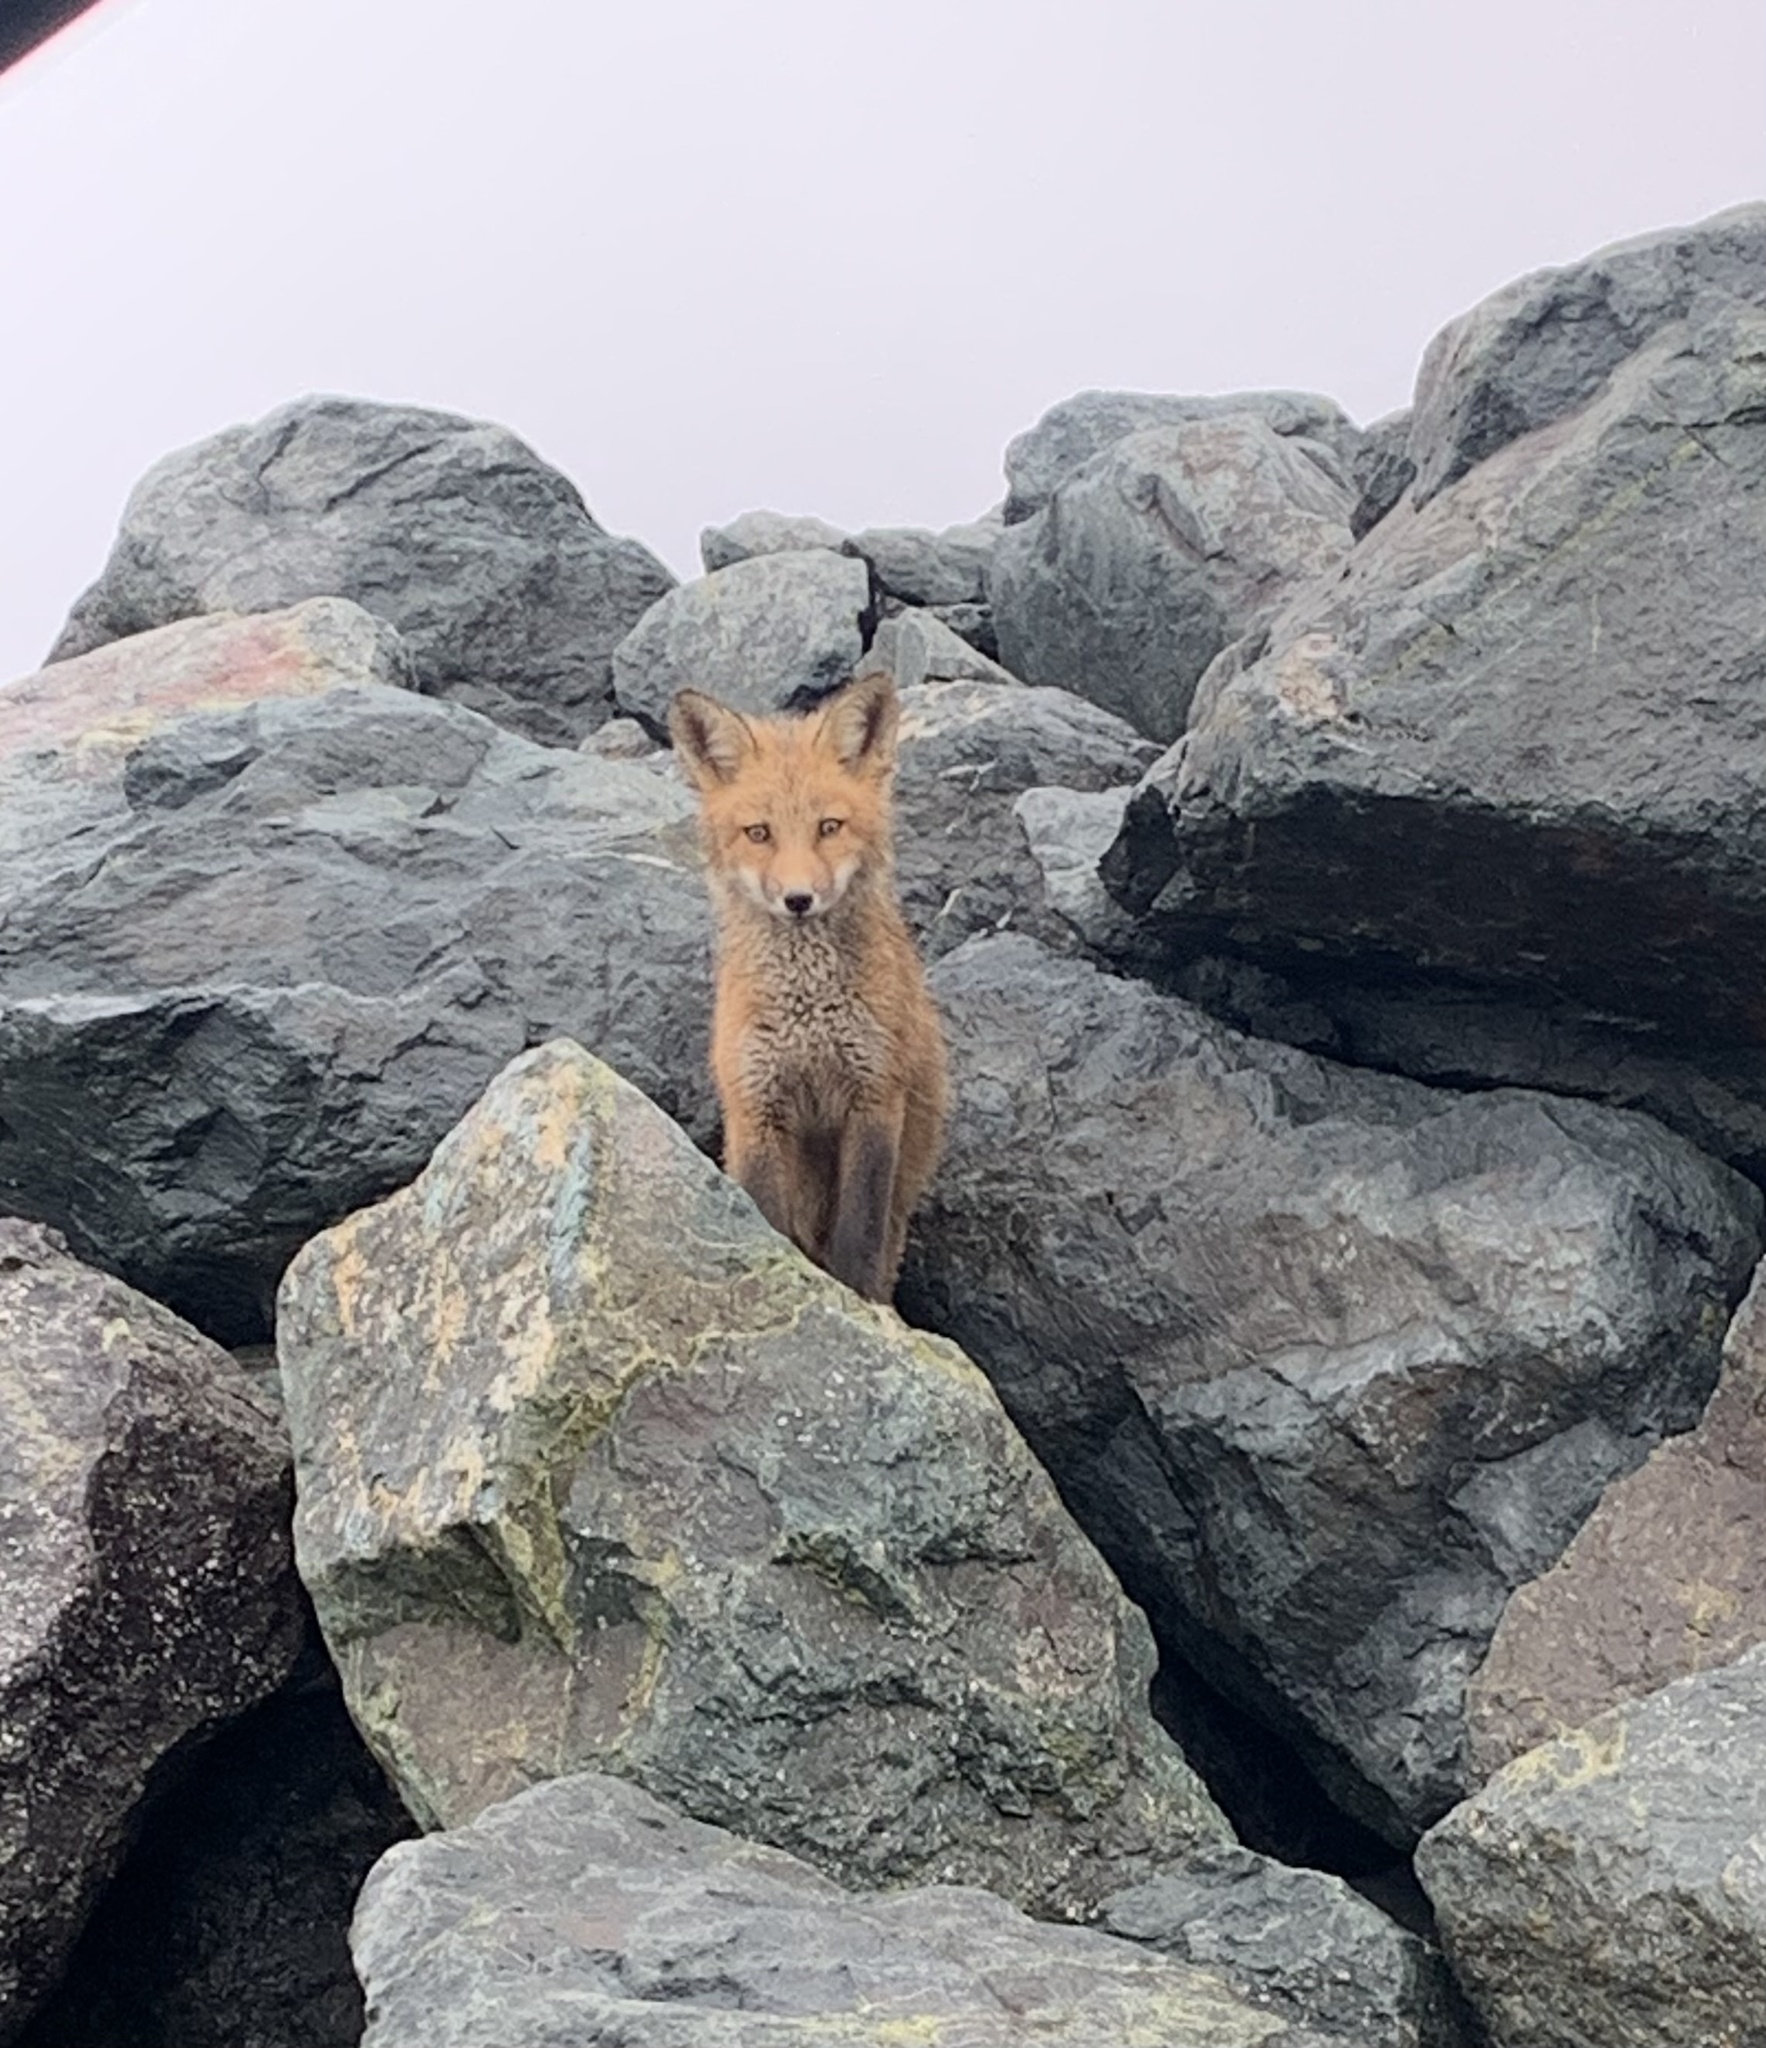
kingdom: Animalia
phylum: Chordata
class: Mammalia
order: Carnivora
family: Canidae
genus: Vulpes
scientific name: Vulpes vulpes
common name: Red fox
